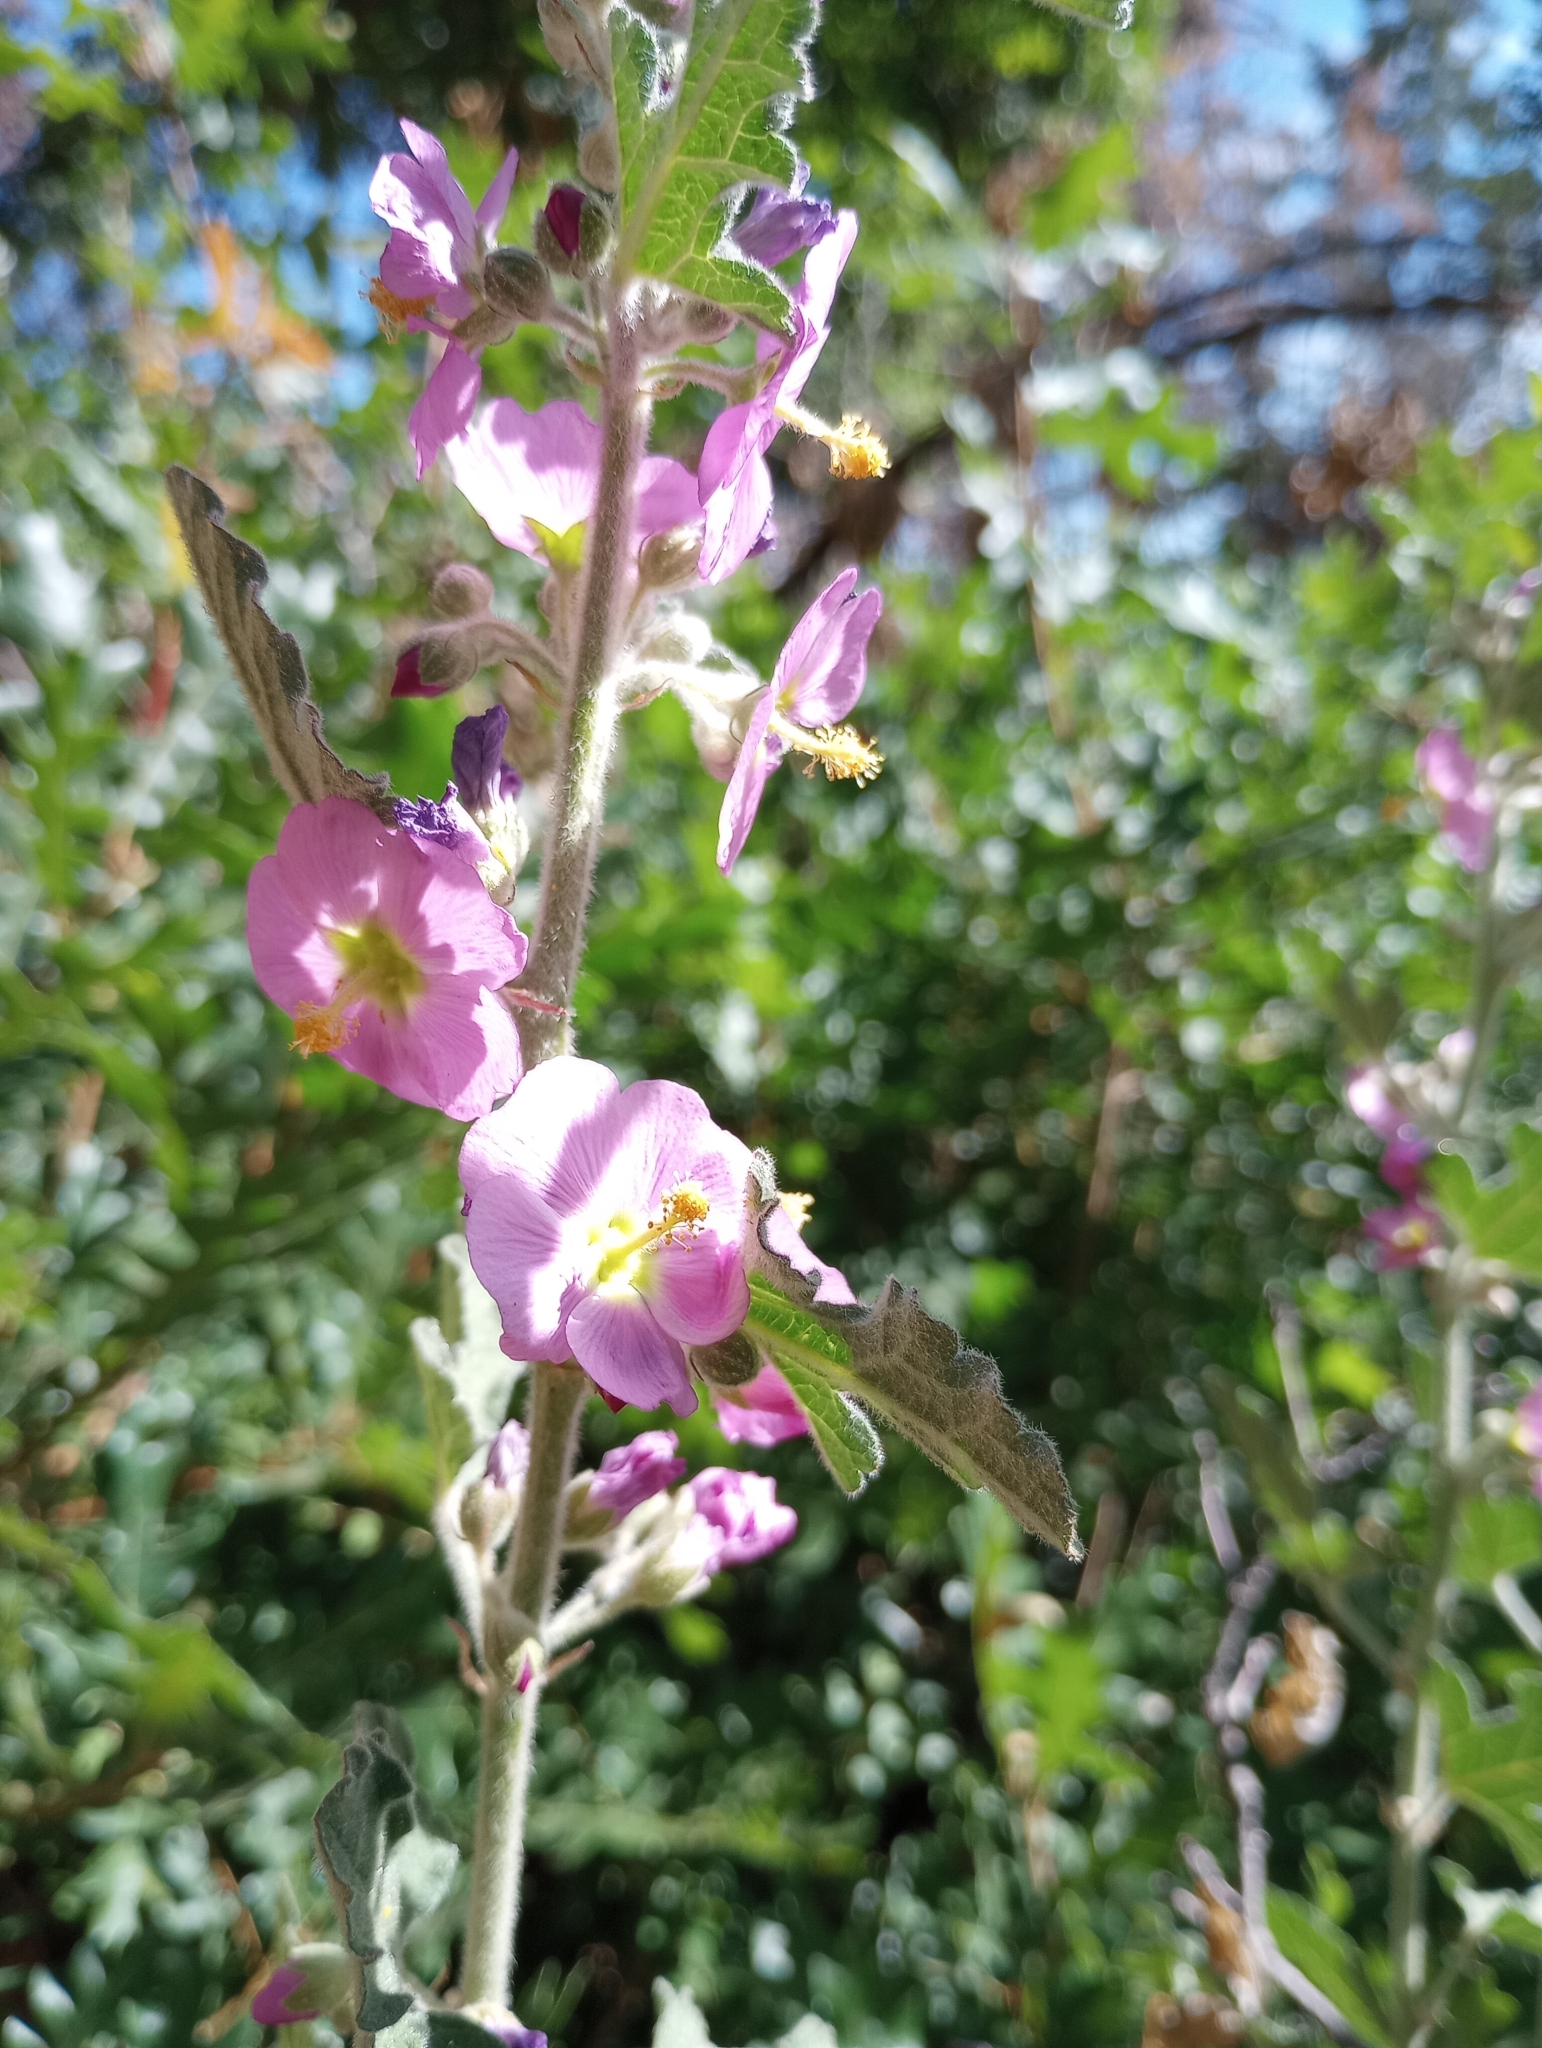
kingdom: Plantae
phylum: Tracheophyta
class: Magnoliopsida
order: Malvales
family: Malvaceae
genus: Sphaeralcea
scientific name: Sphaeralcea fendleri
